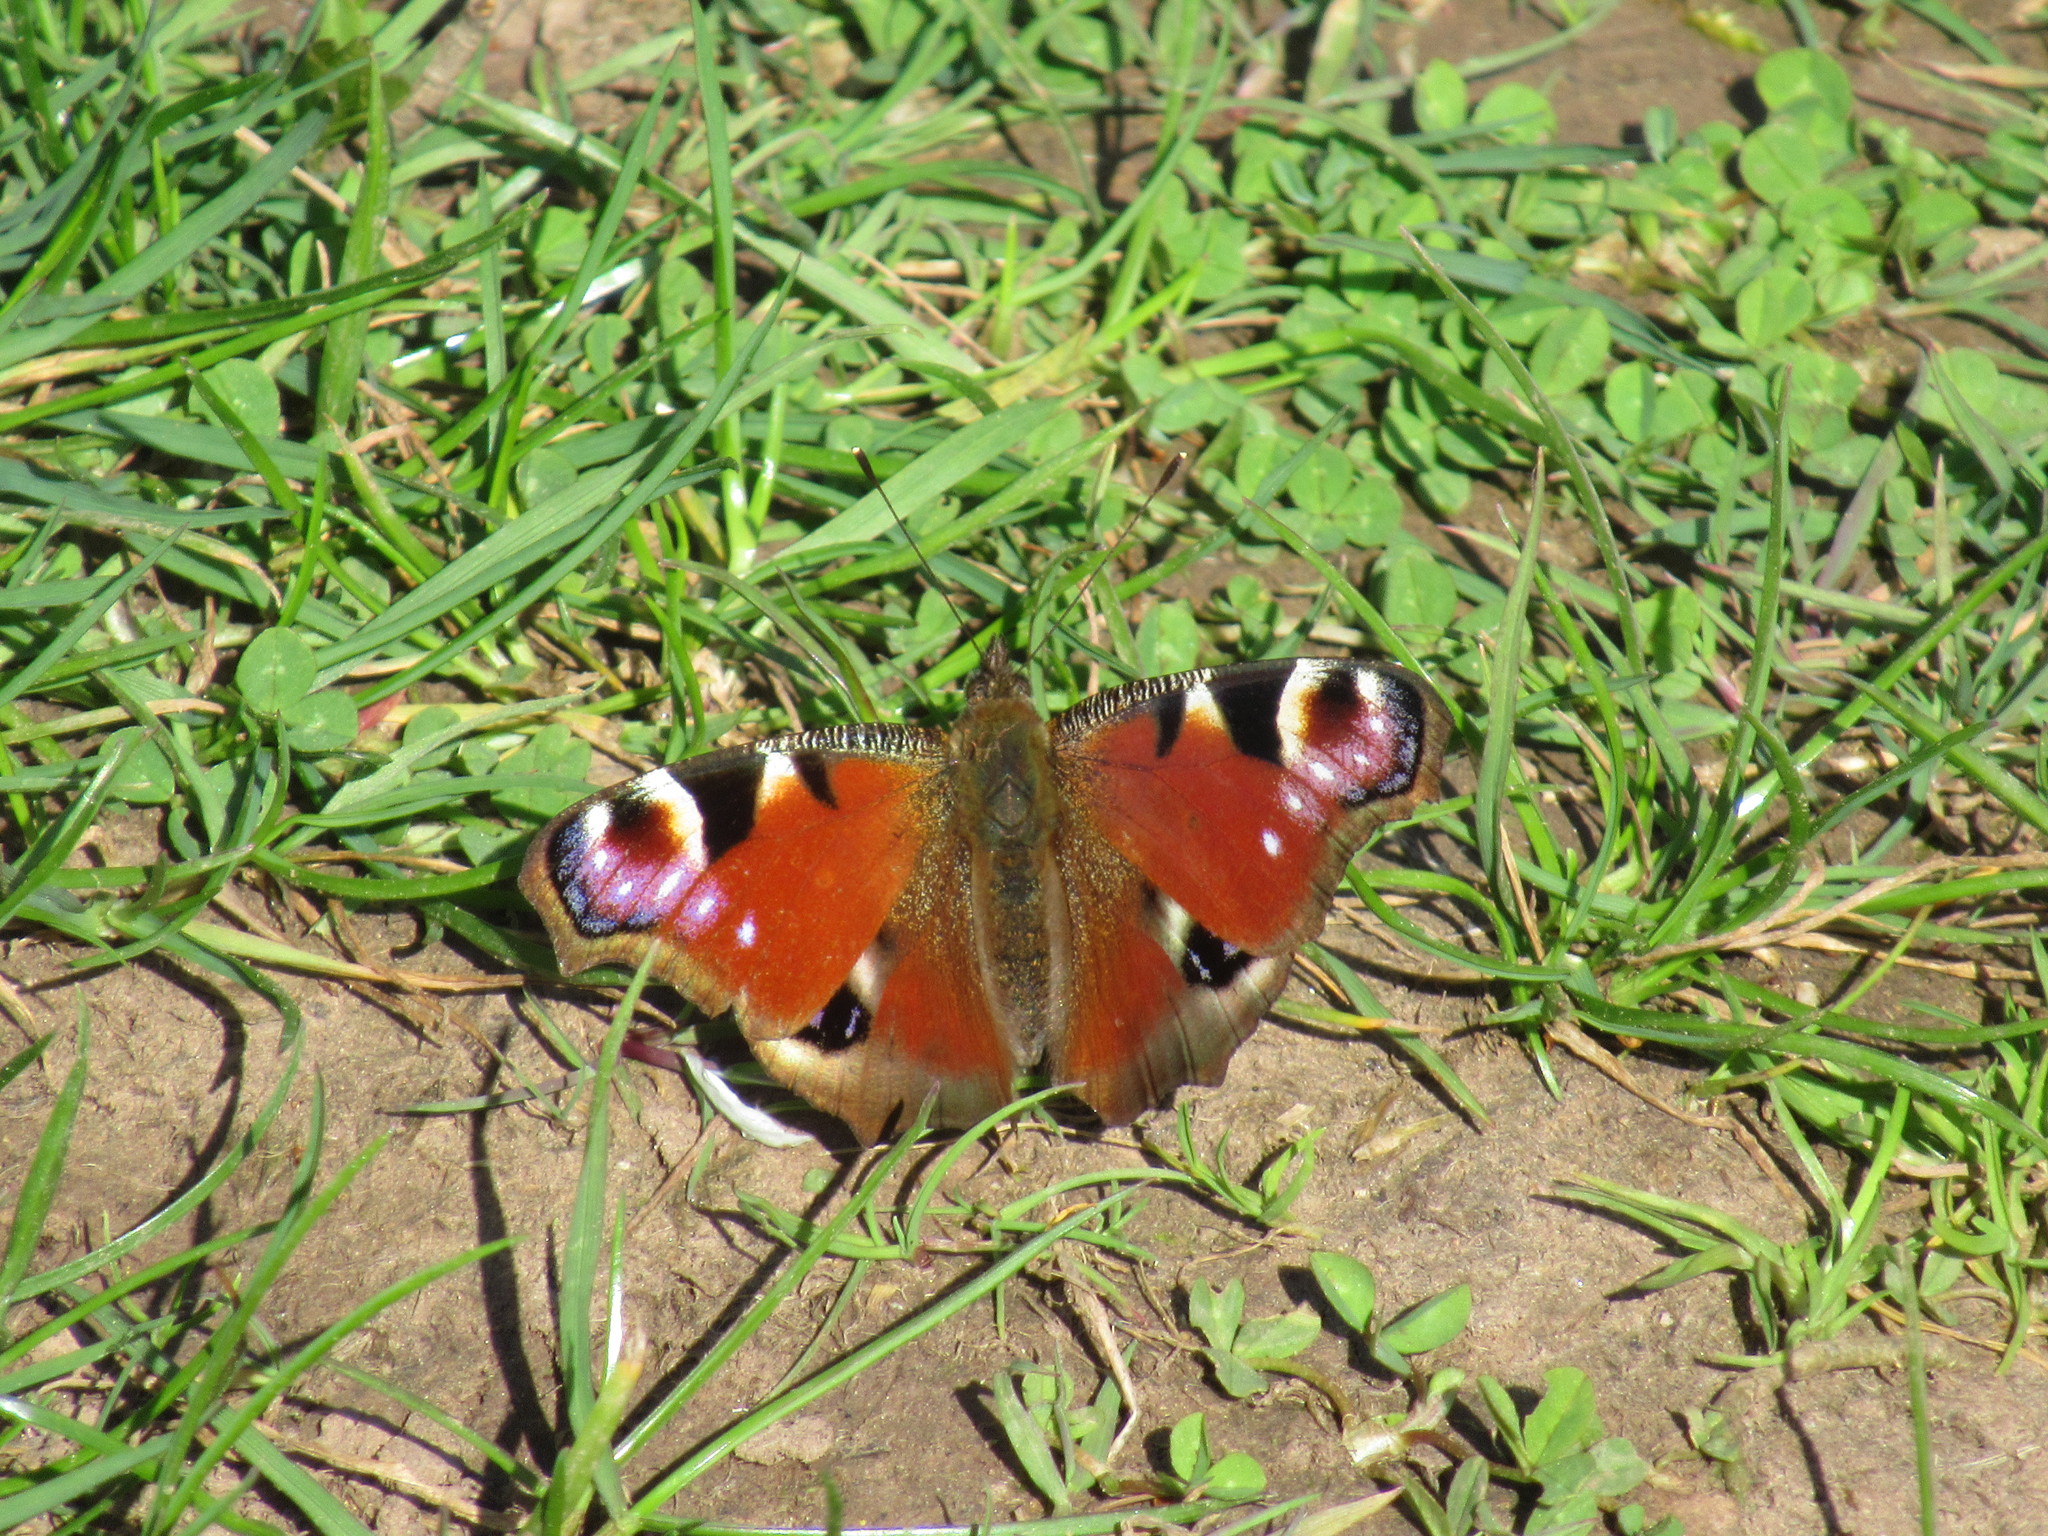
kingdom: Animalia
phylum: Arthropoda
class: Insecta
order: Lepidoptera
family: Nymphalidae
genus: Aglais
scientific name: Aglais io
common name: Peacock
